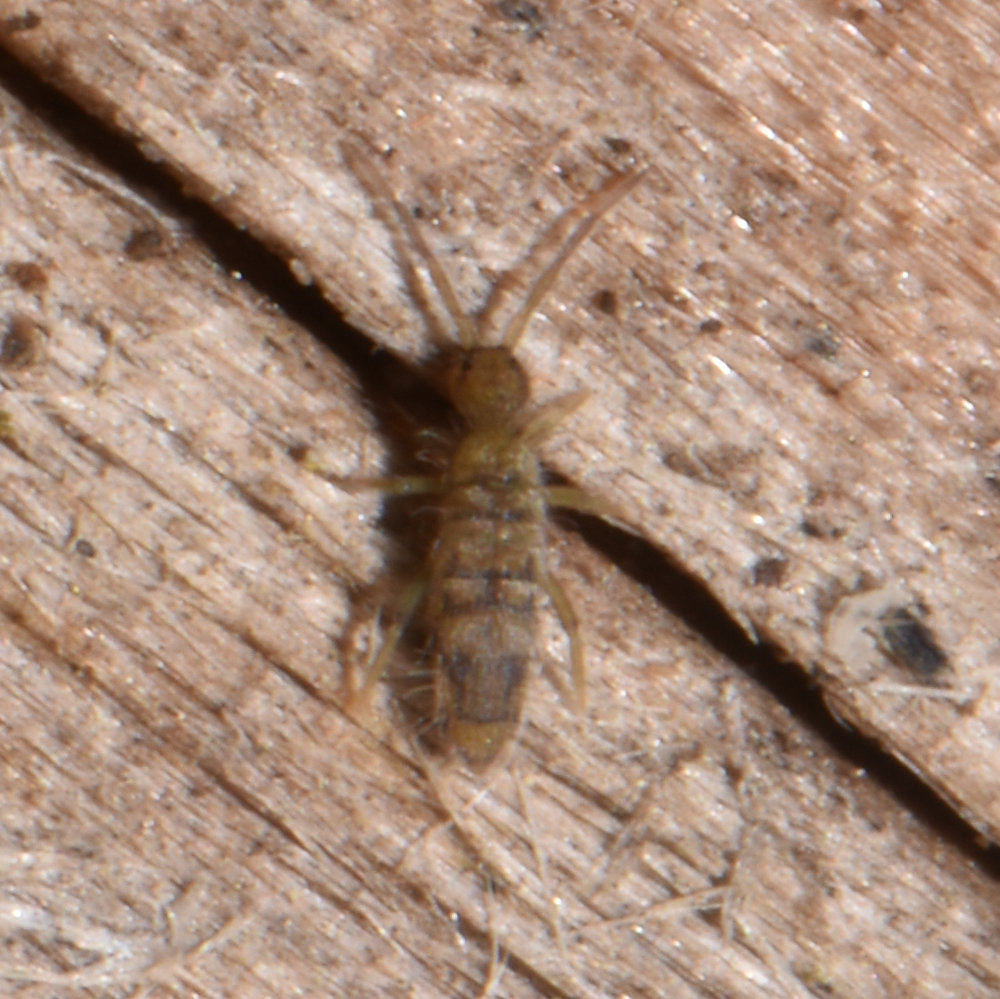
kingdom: Animalia
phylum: Arthropoda
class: Collembola
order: Entomobryomorpha
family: Entomobryidae
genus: Entomobrya
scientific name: Entomobrya nivalis
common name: Cosmopolitan springtail
